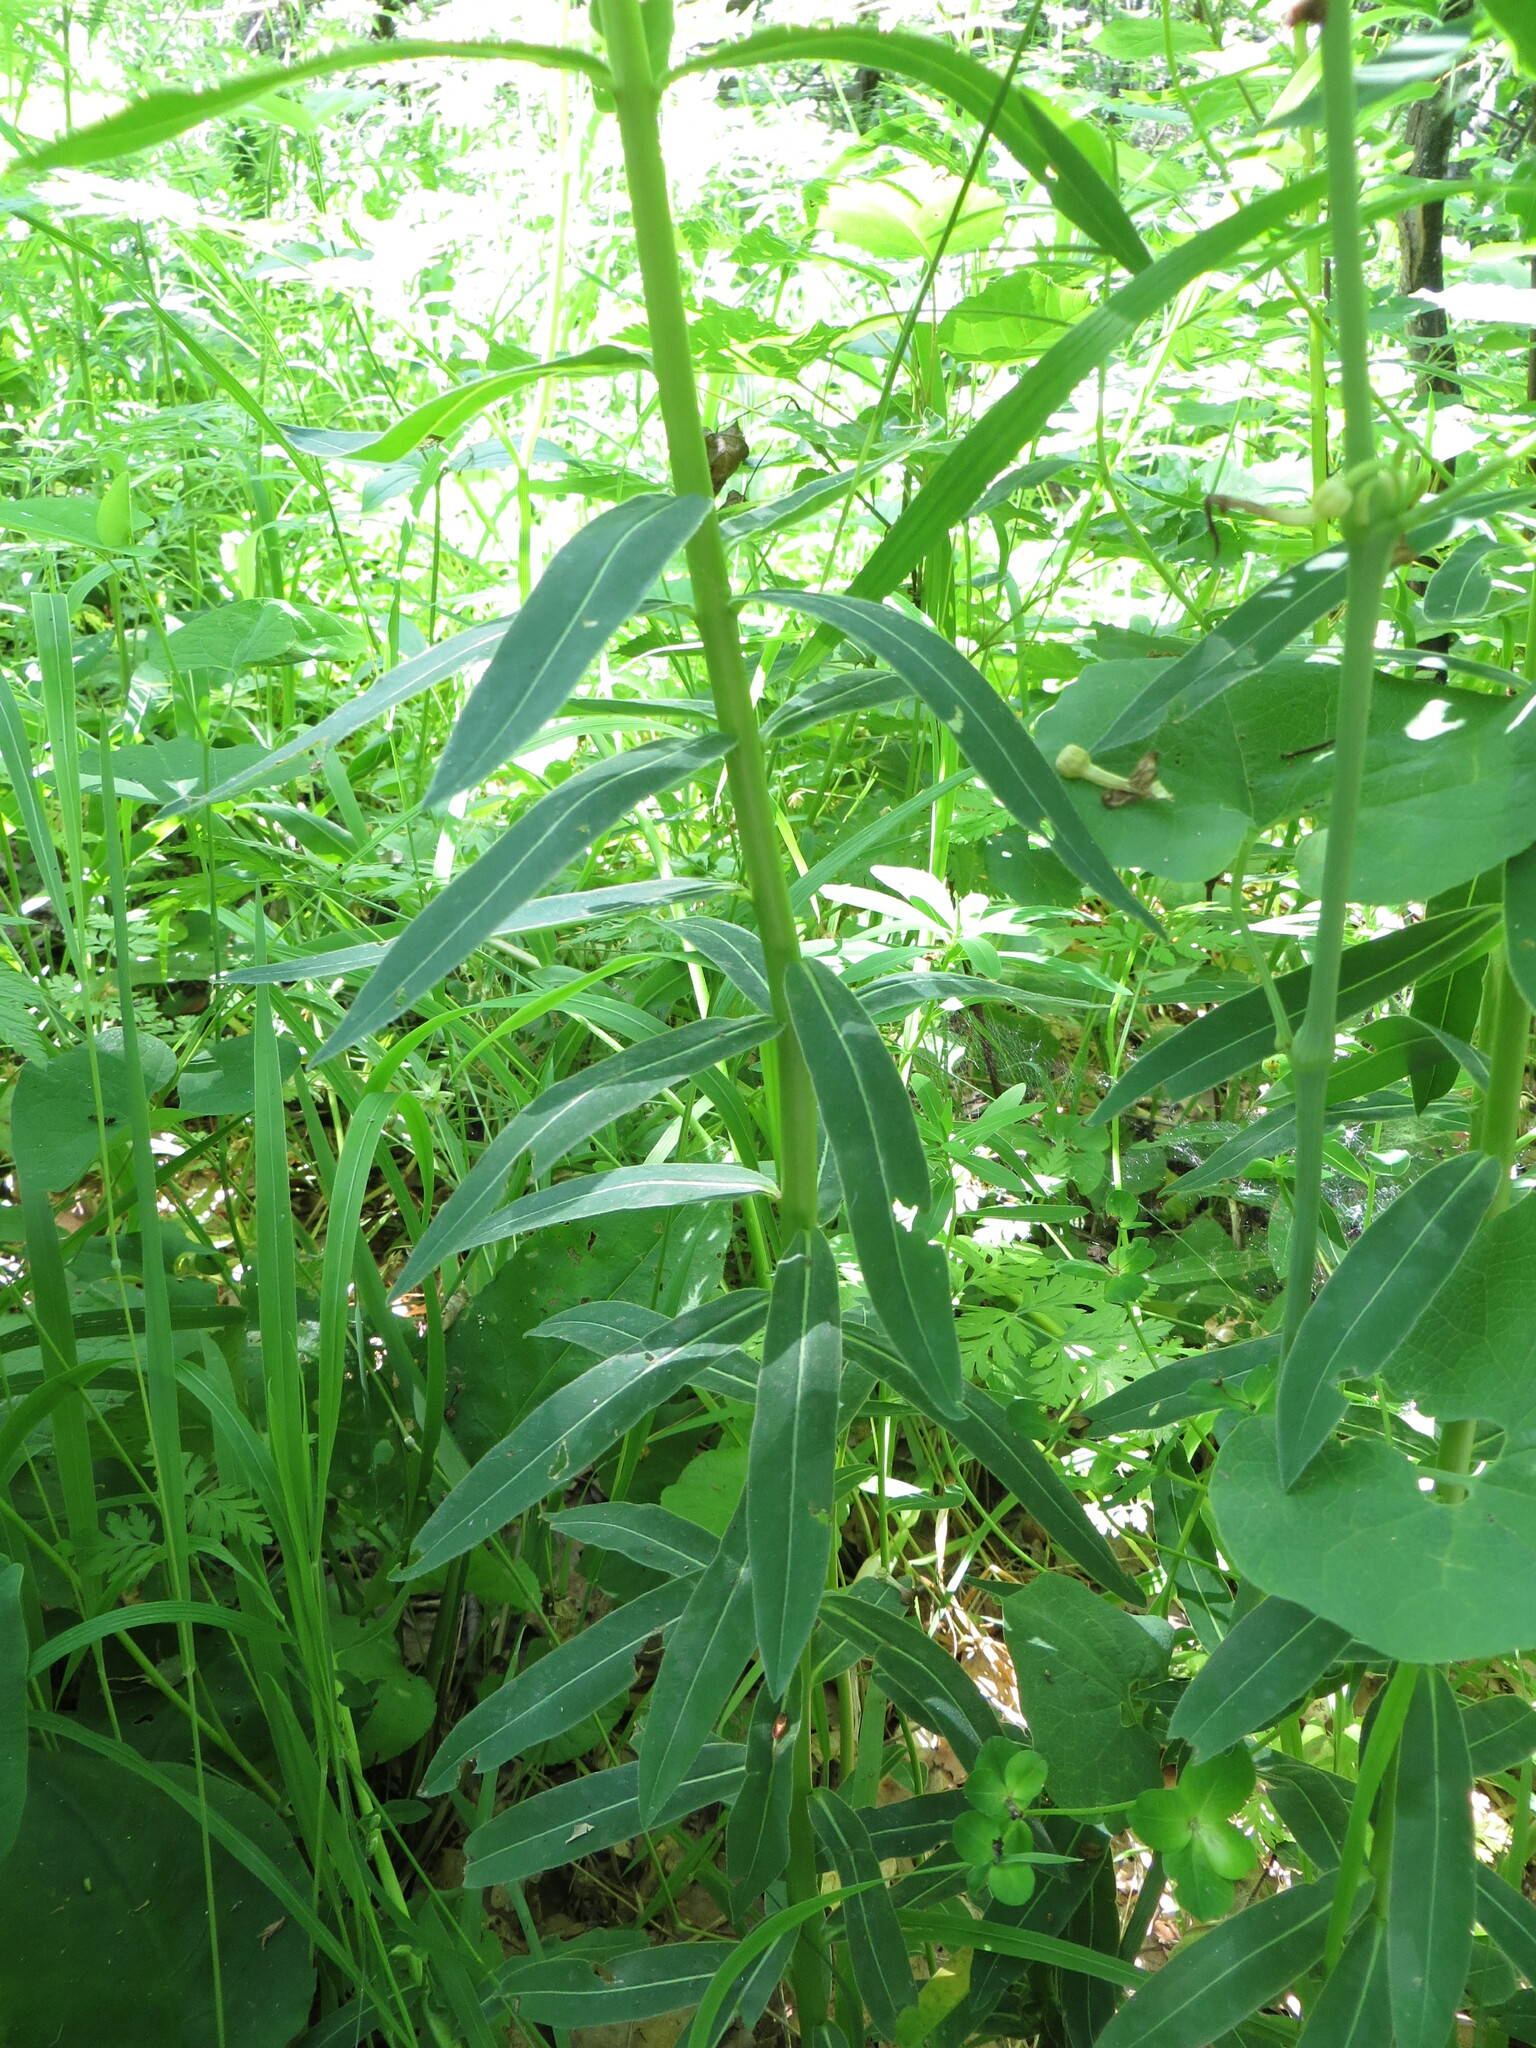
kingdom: Plantae
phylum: Tracheophyta
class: Magnoliopsida
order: Malpighiales
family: Euphorbiaceae
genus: Euphorbia
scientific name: Euphorbia semivillosa
